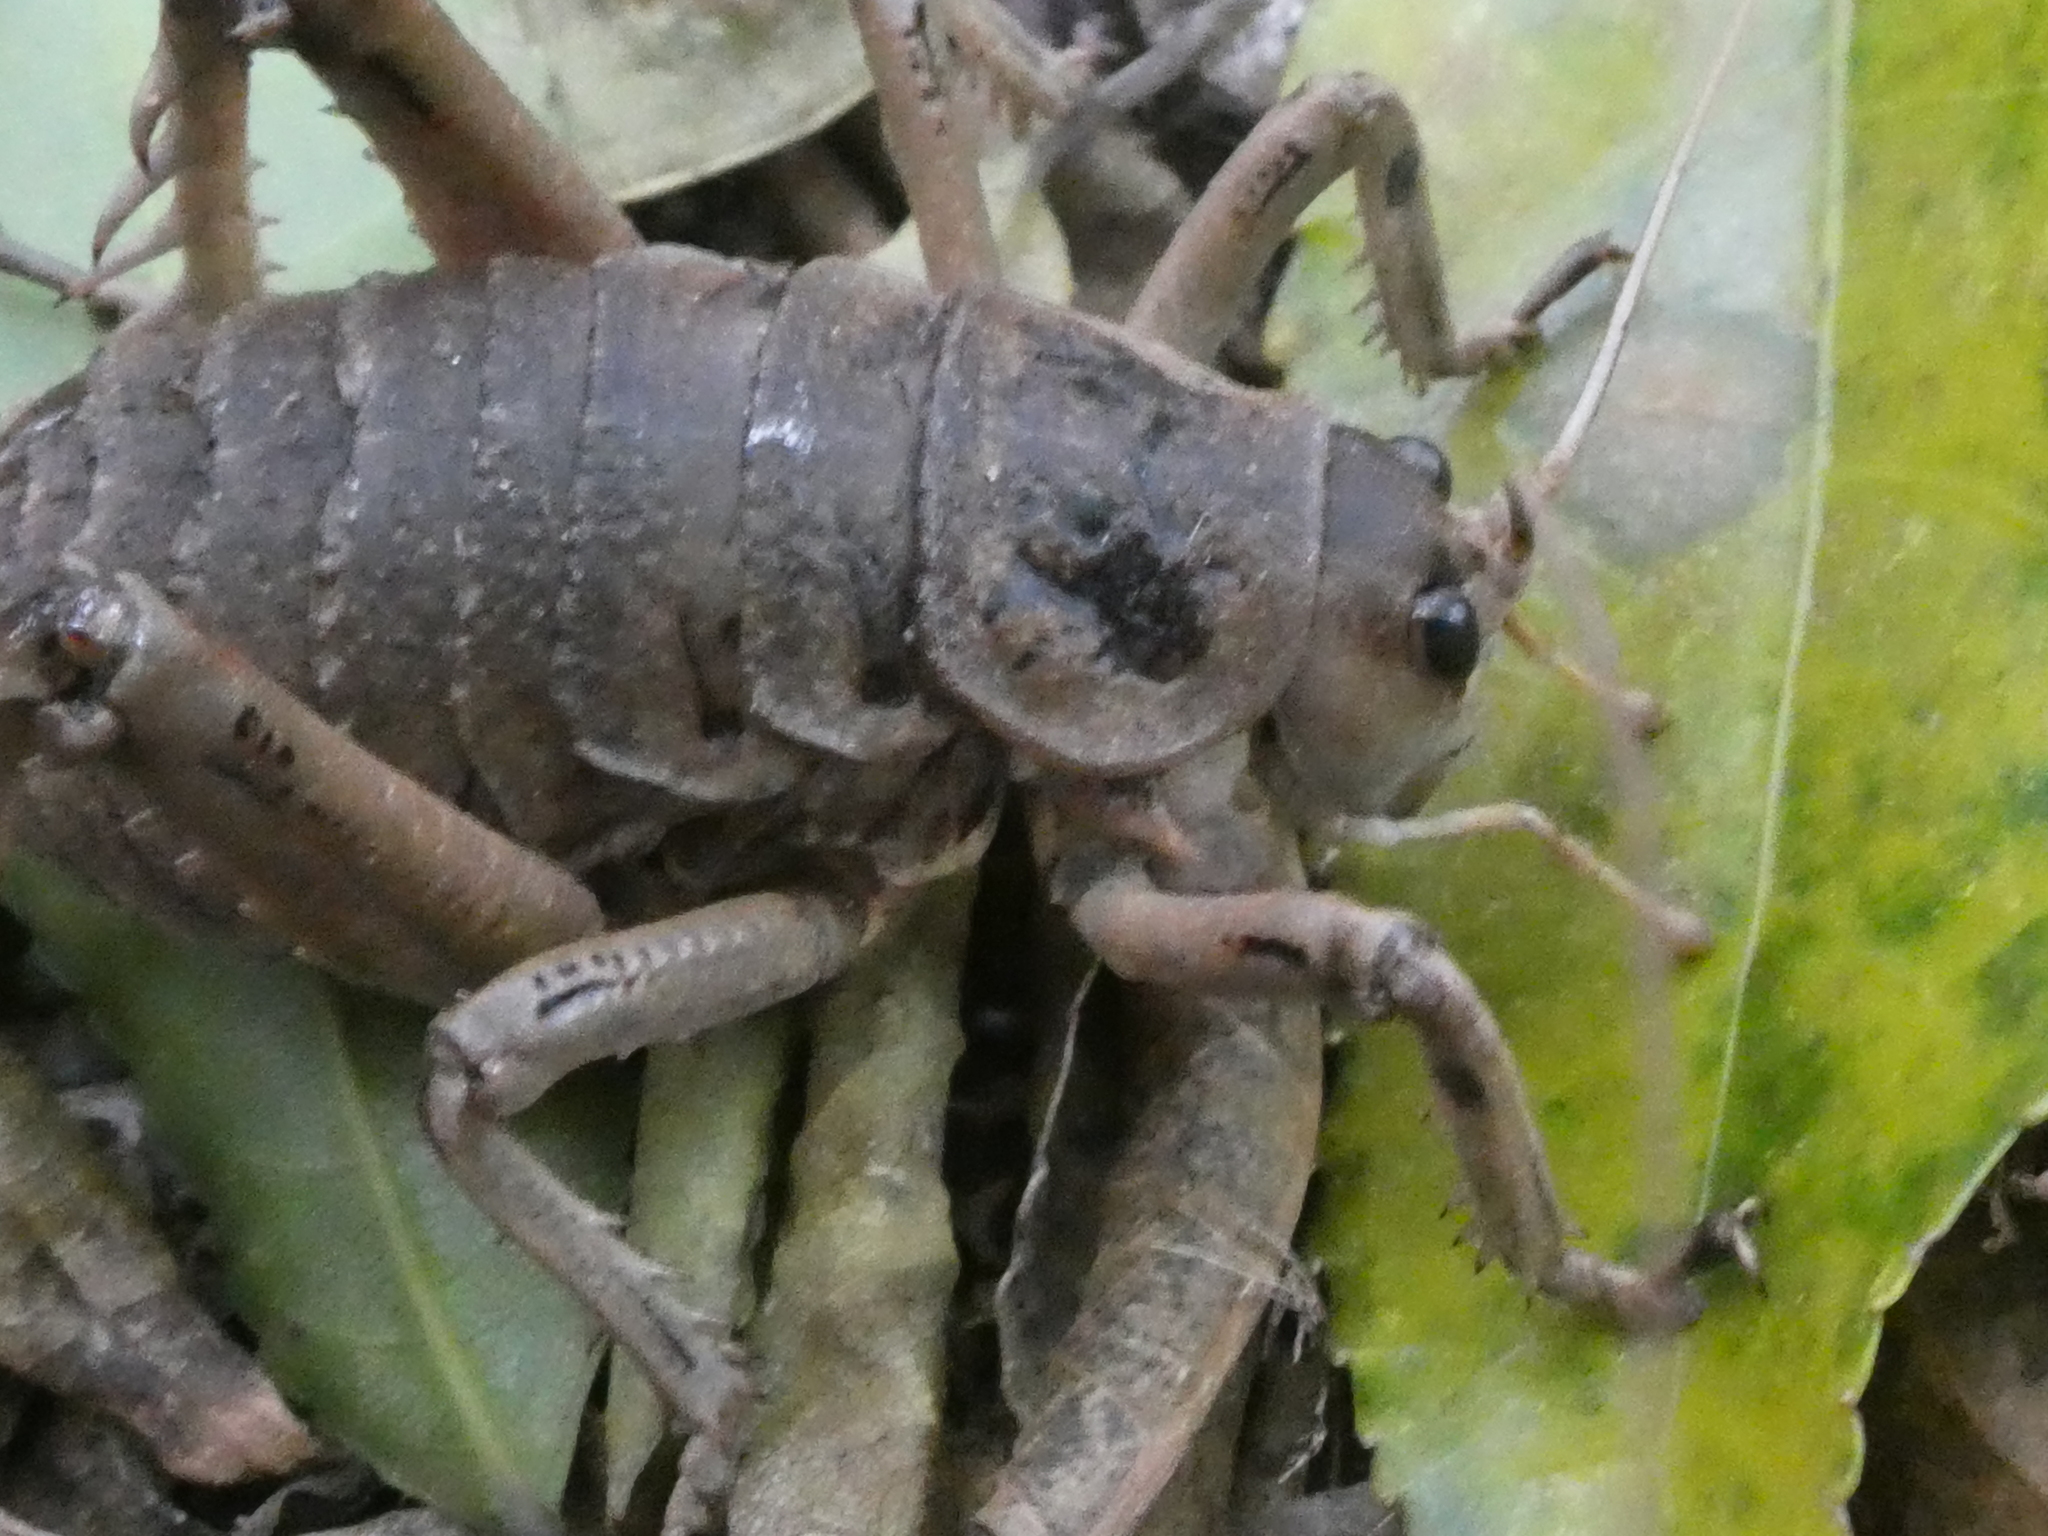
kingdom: Animalia
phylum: Arthropoda
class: Insecta
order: Orthoptera
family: Anostostomatidae
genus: Deinacrida
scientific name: Deinacrida rugosa
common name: Stephens island weta
